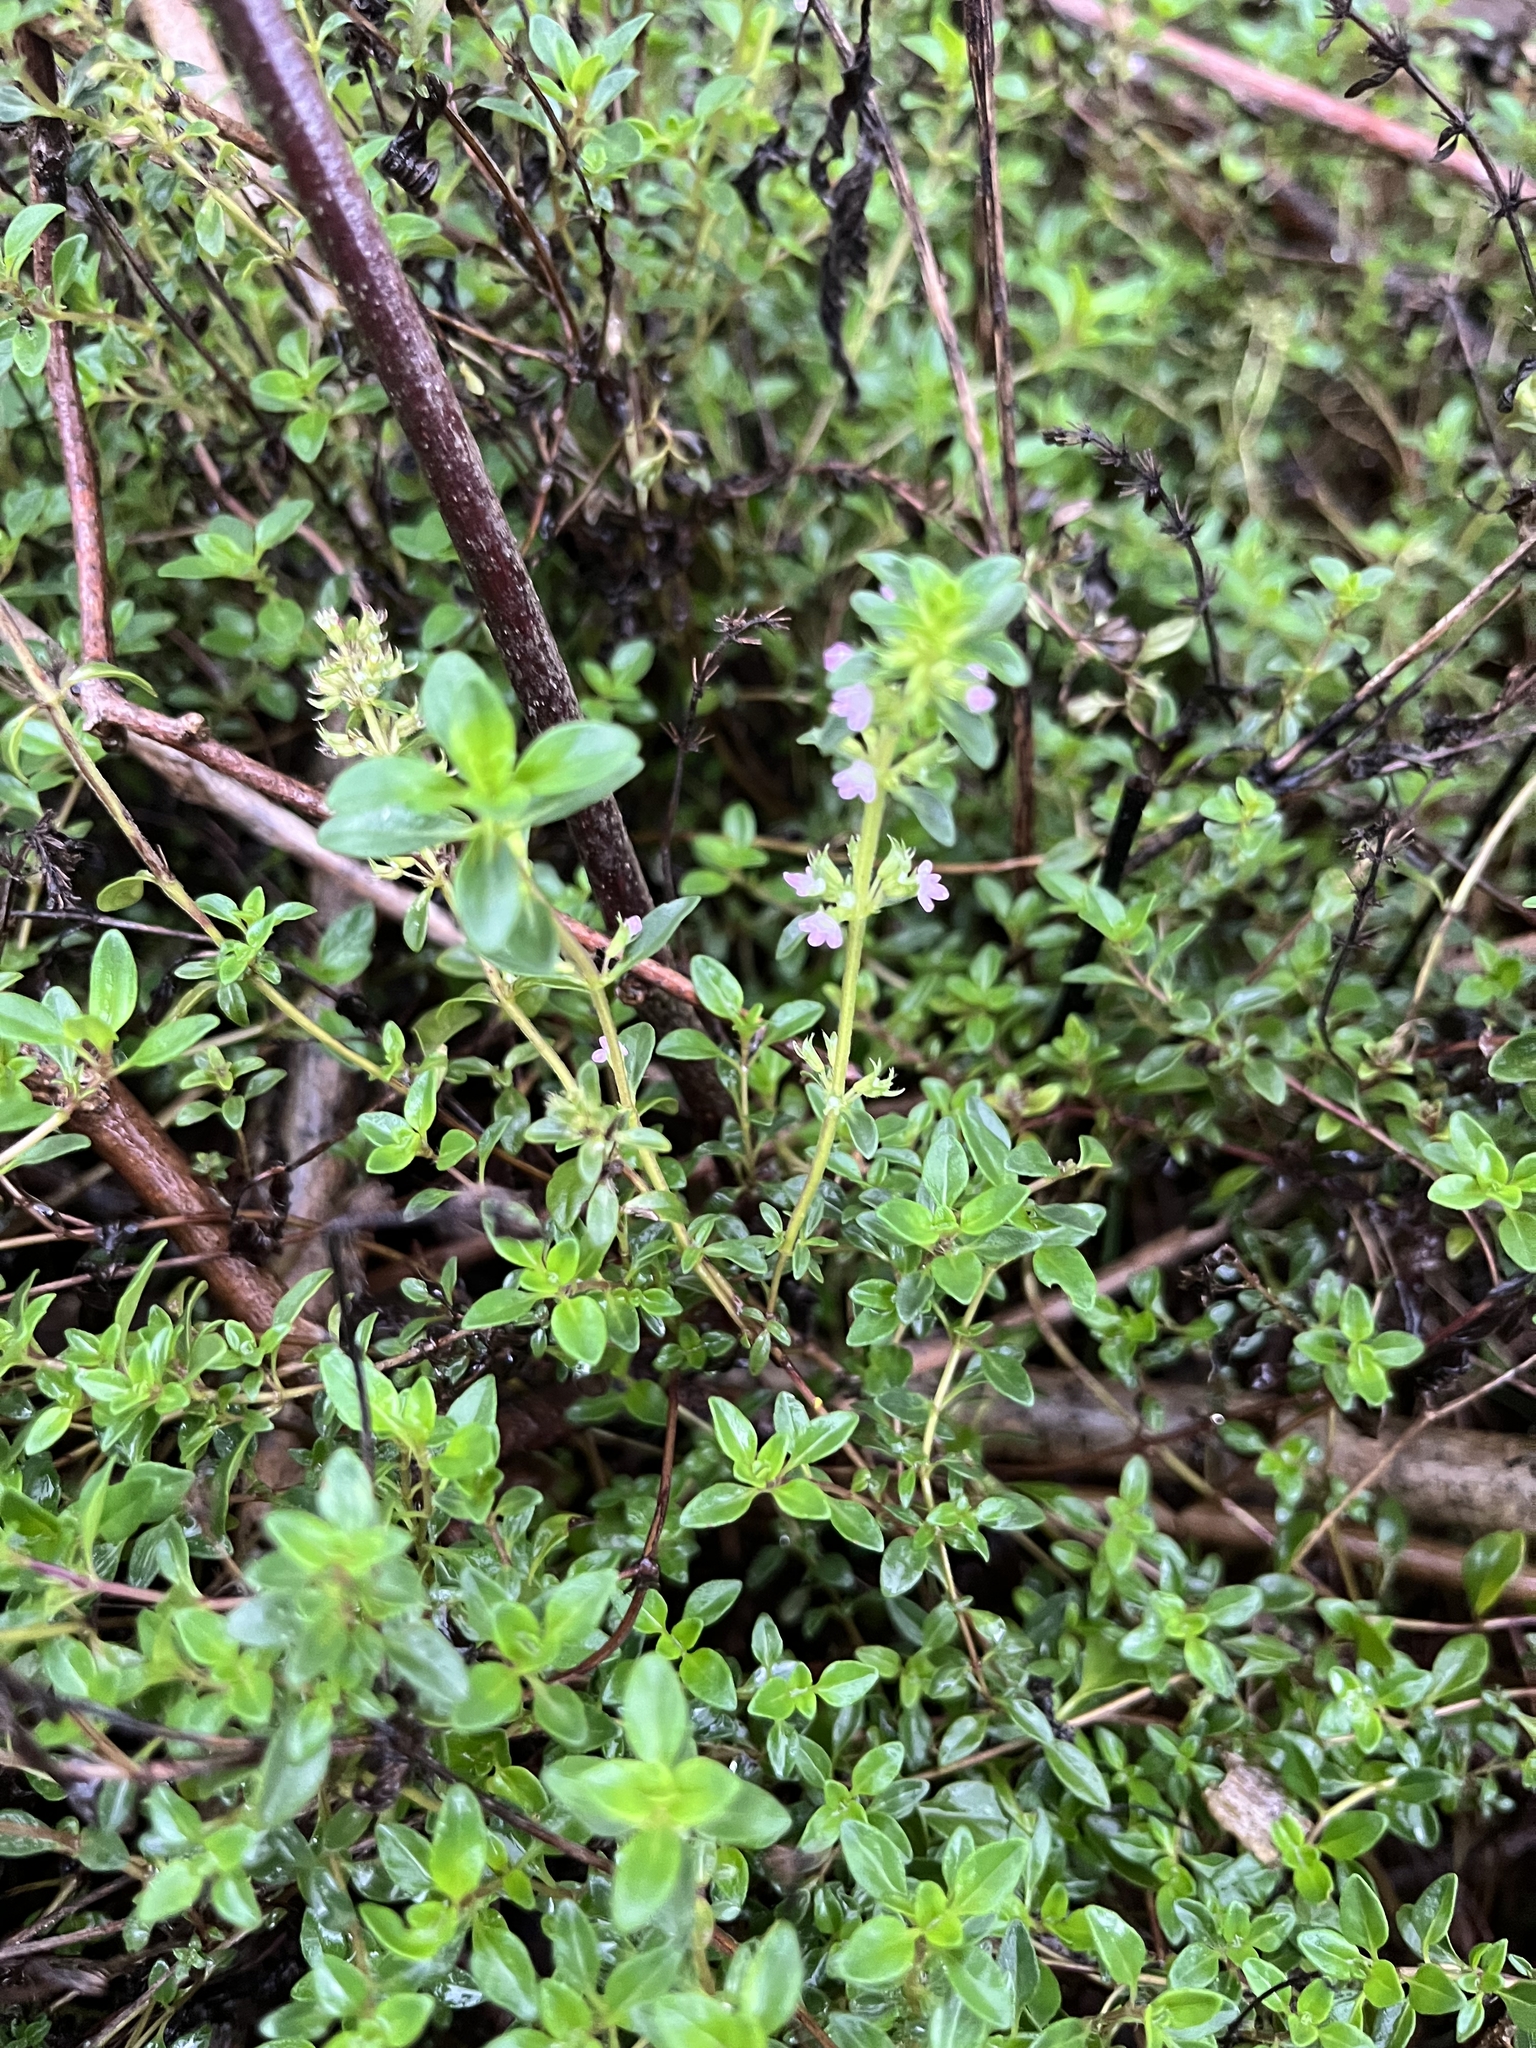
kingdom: Plantae
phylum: Tracheophyta
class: Magnoliopsida
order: Lamiales
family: Lamiaceae
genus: Thymus
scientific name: Thymus pulegioides
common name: Large thyme
